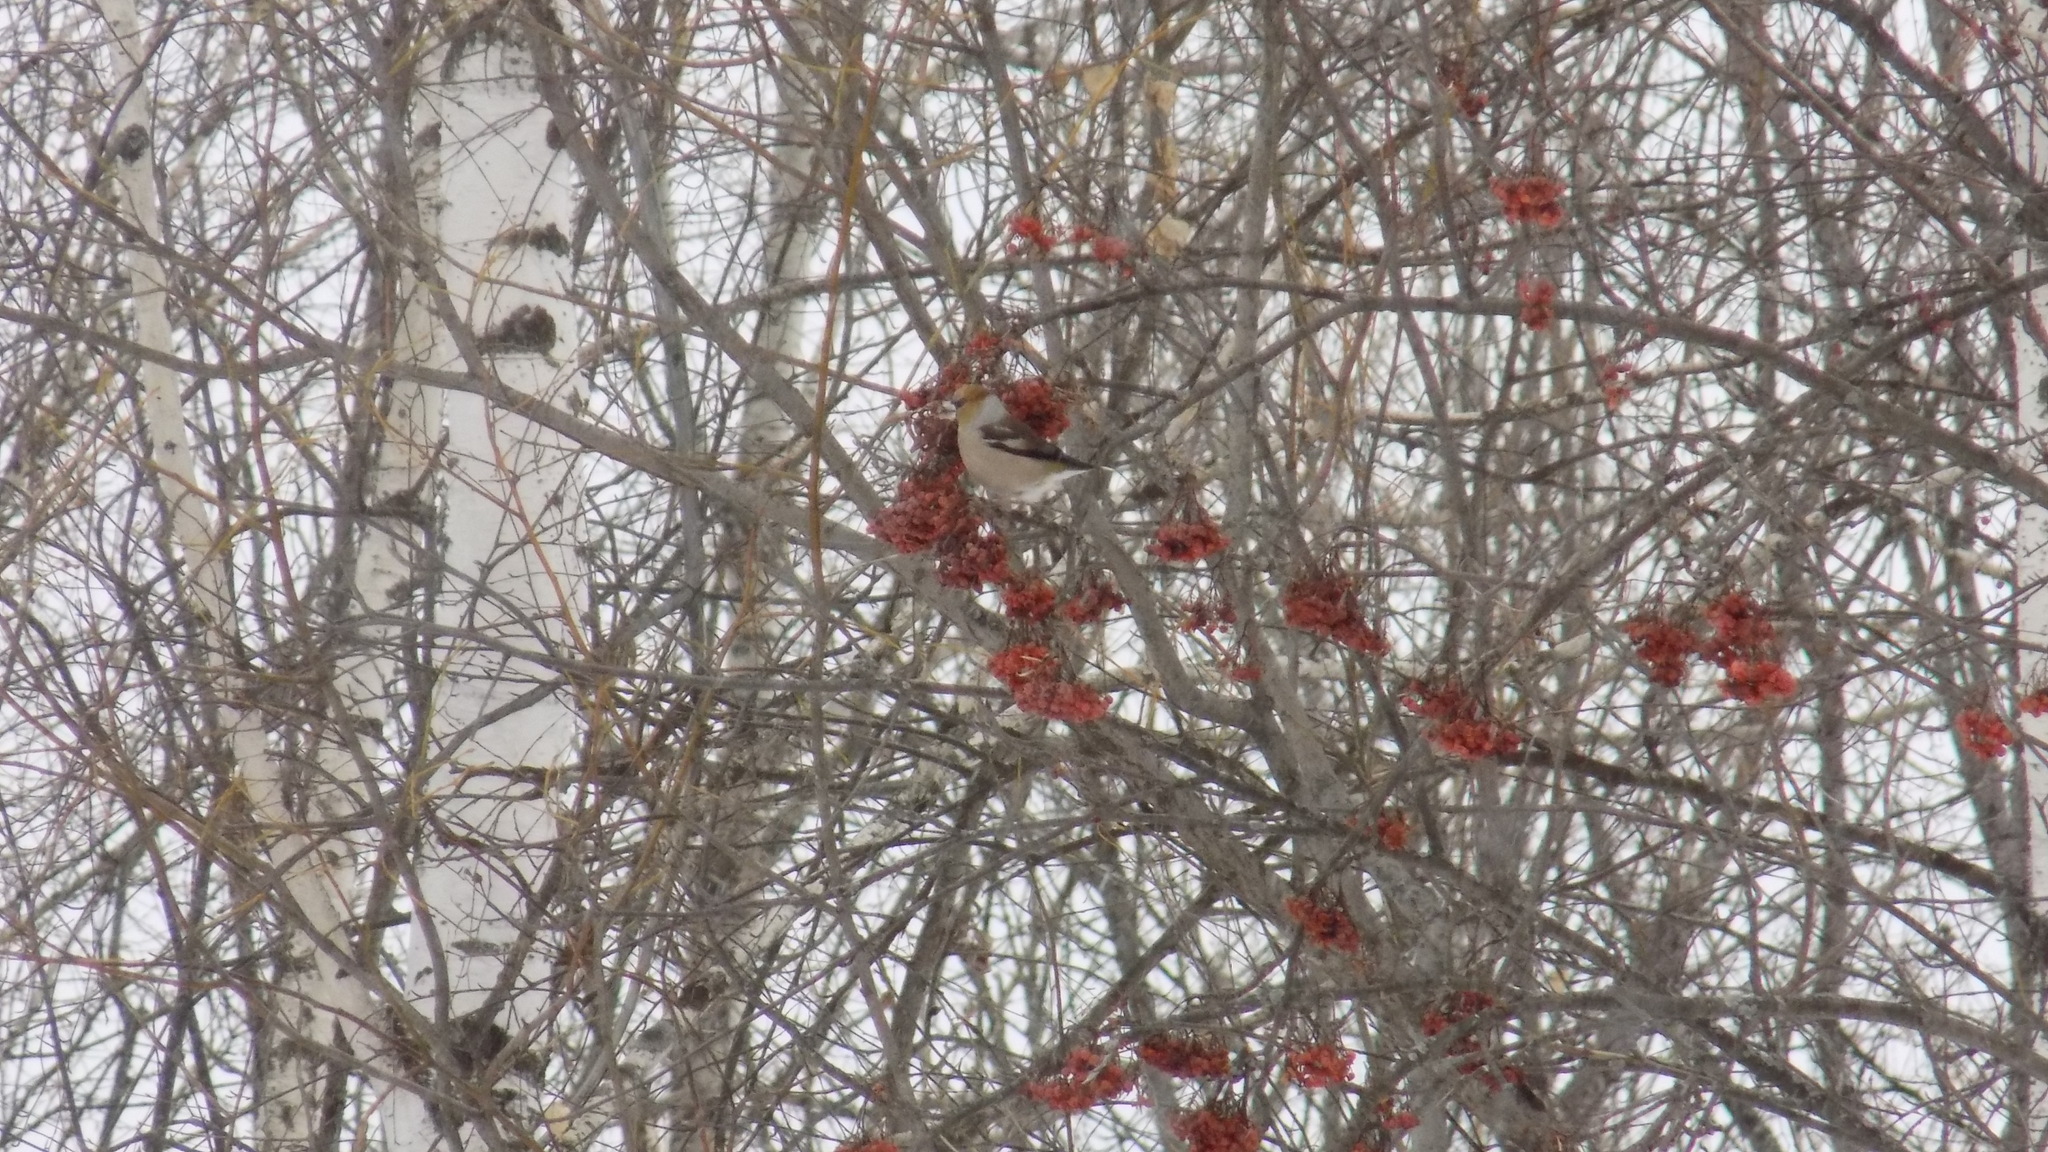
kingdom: Animalia
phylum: Chordata
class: Aves
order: Passeriformes
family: Fringillidae
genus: Coccothraustes
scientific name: Coccothraustes coccothraustes
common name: Hawfinch
